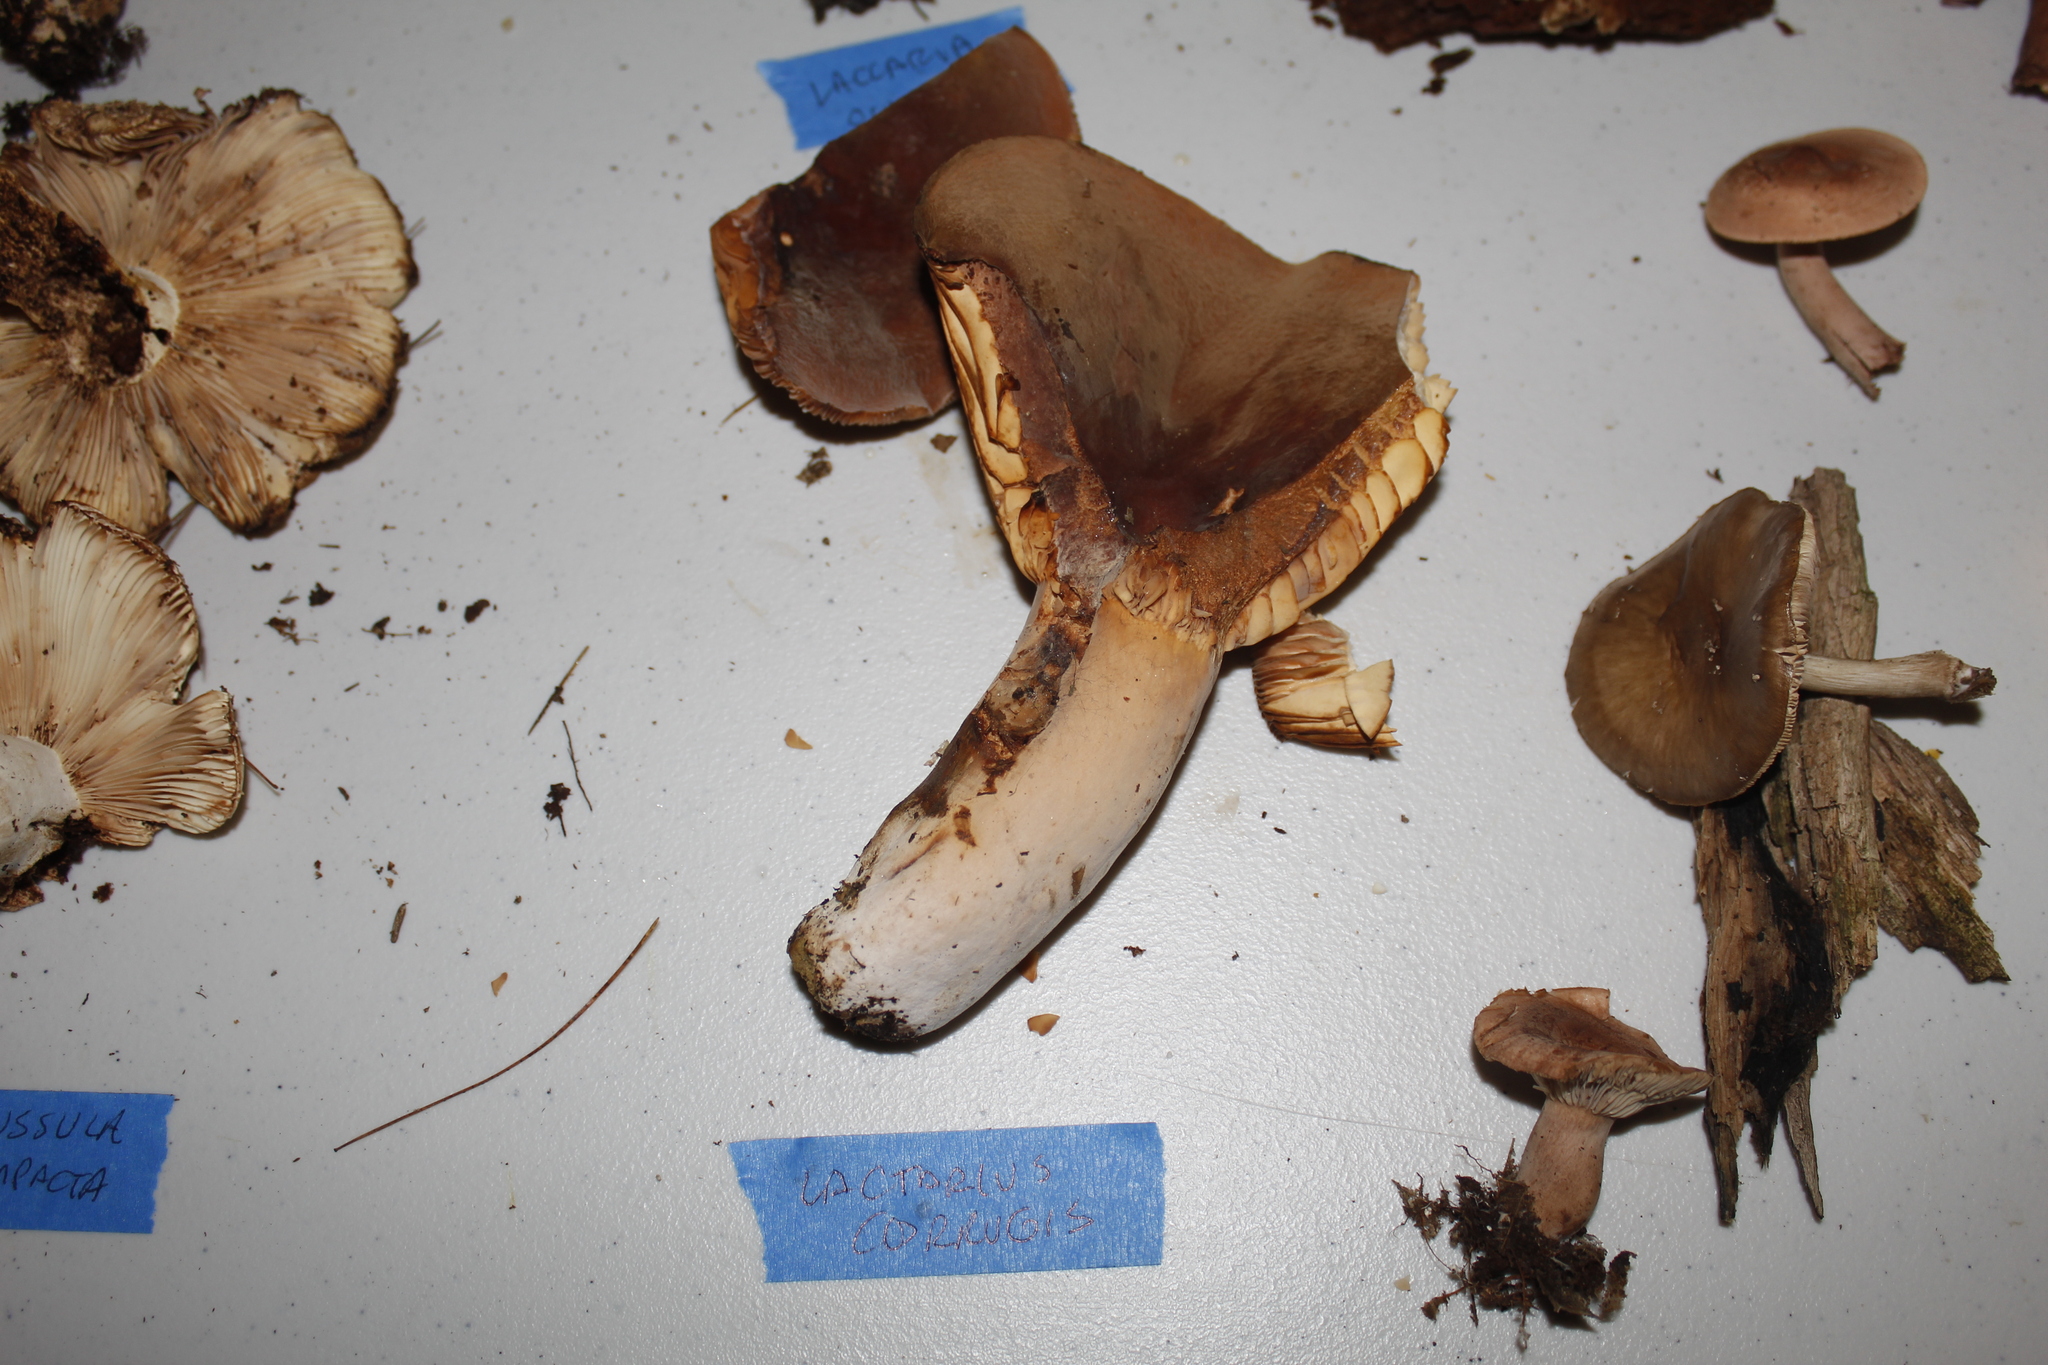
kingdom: Fungi
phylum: Basidiomycota
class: Agaricomycetes
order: Russulales
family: Russulaceae
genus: Lactarius
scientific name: Lactarius corrugis
